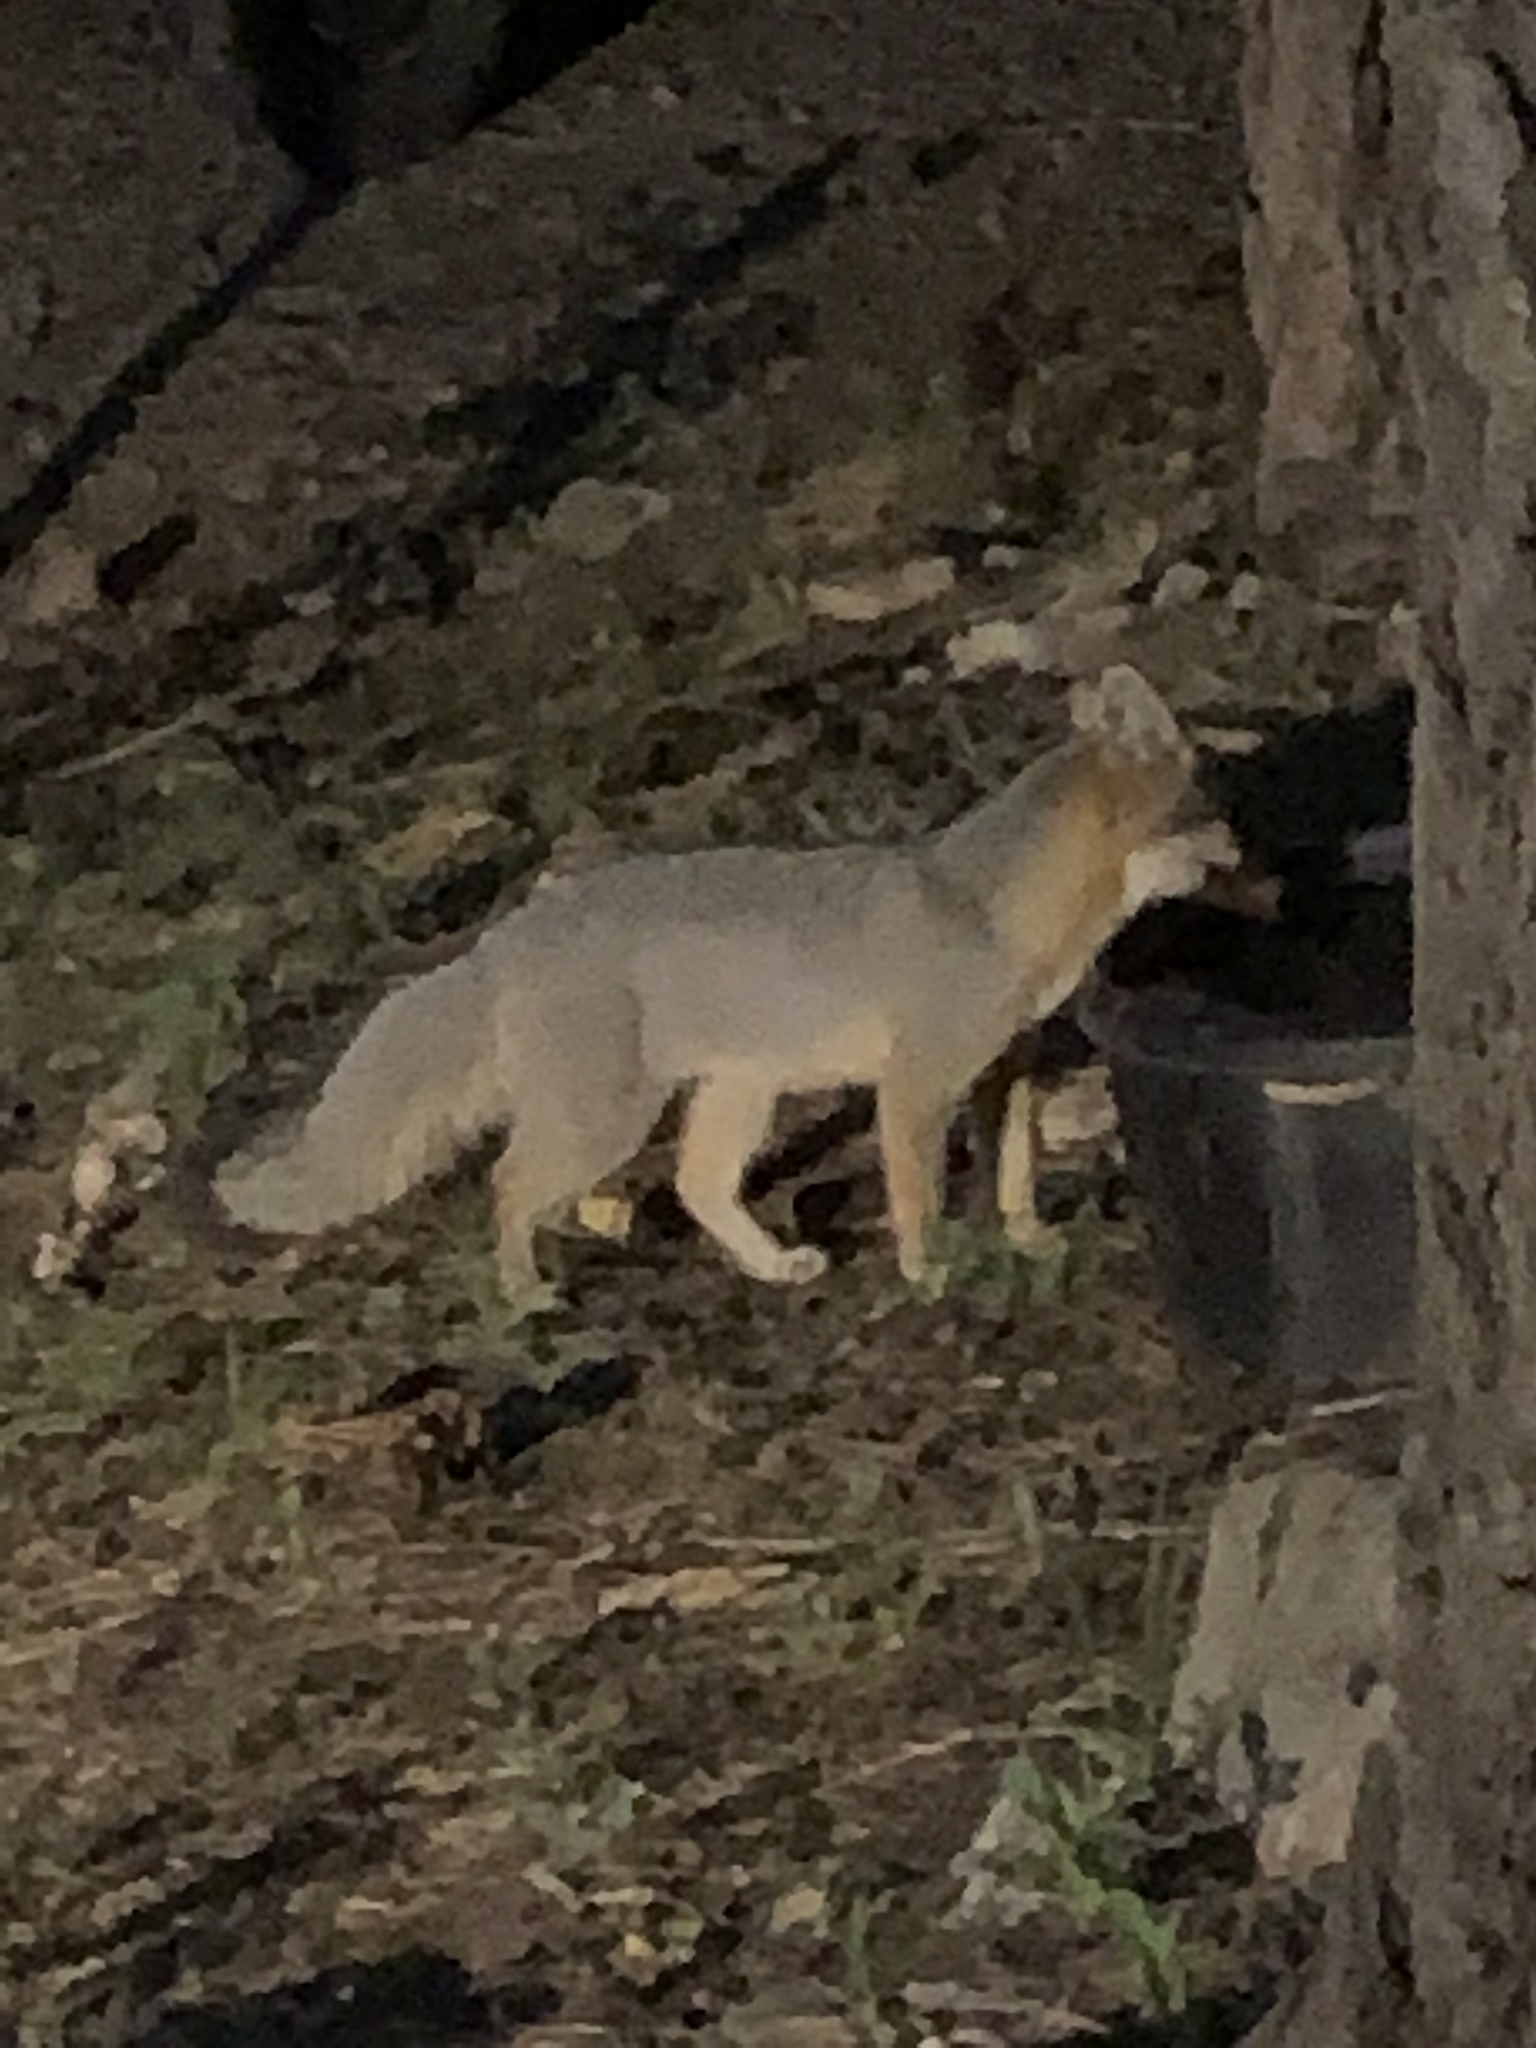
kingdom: Animalia
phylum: Chordata
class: Mammalia
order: Carnivora
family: Canidae
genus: Urocyon
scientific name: Urocyon cinereoargenteus
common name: Gray fox
